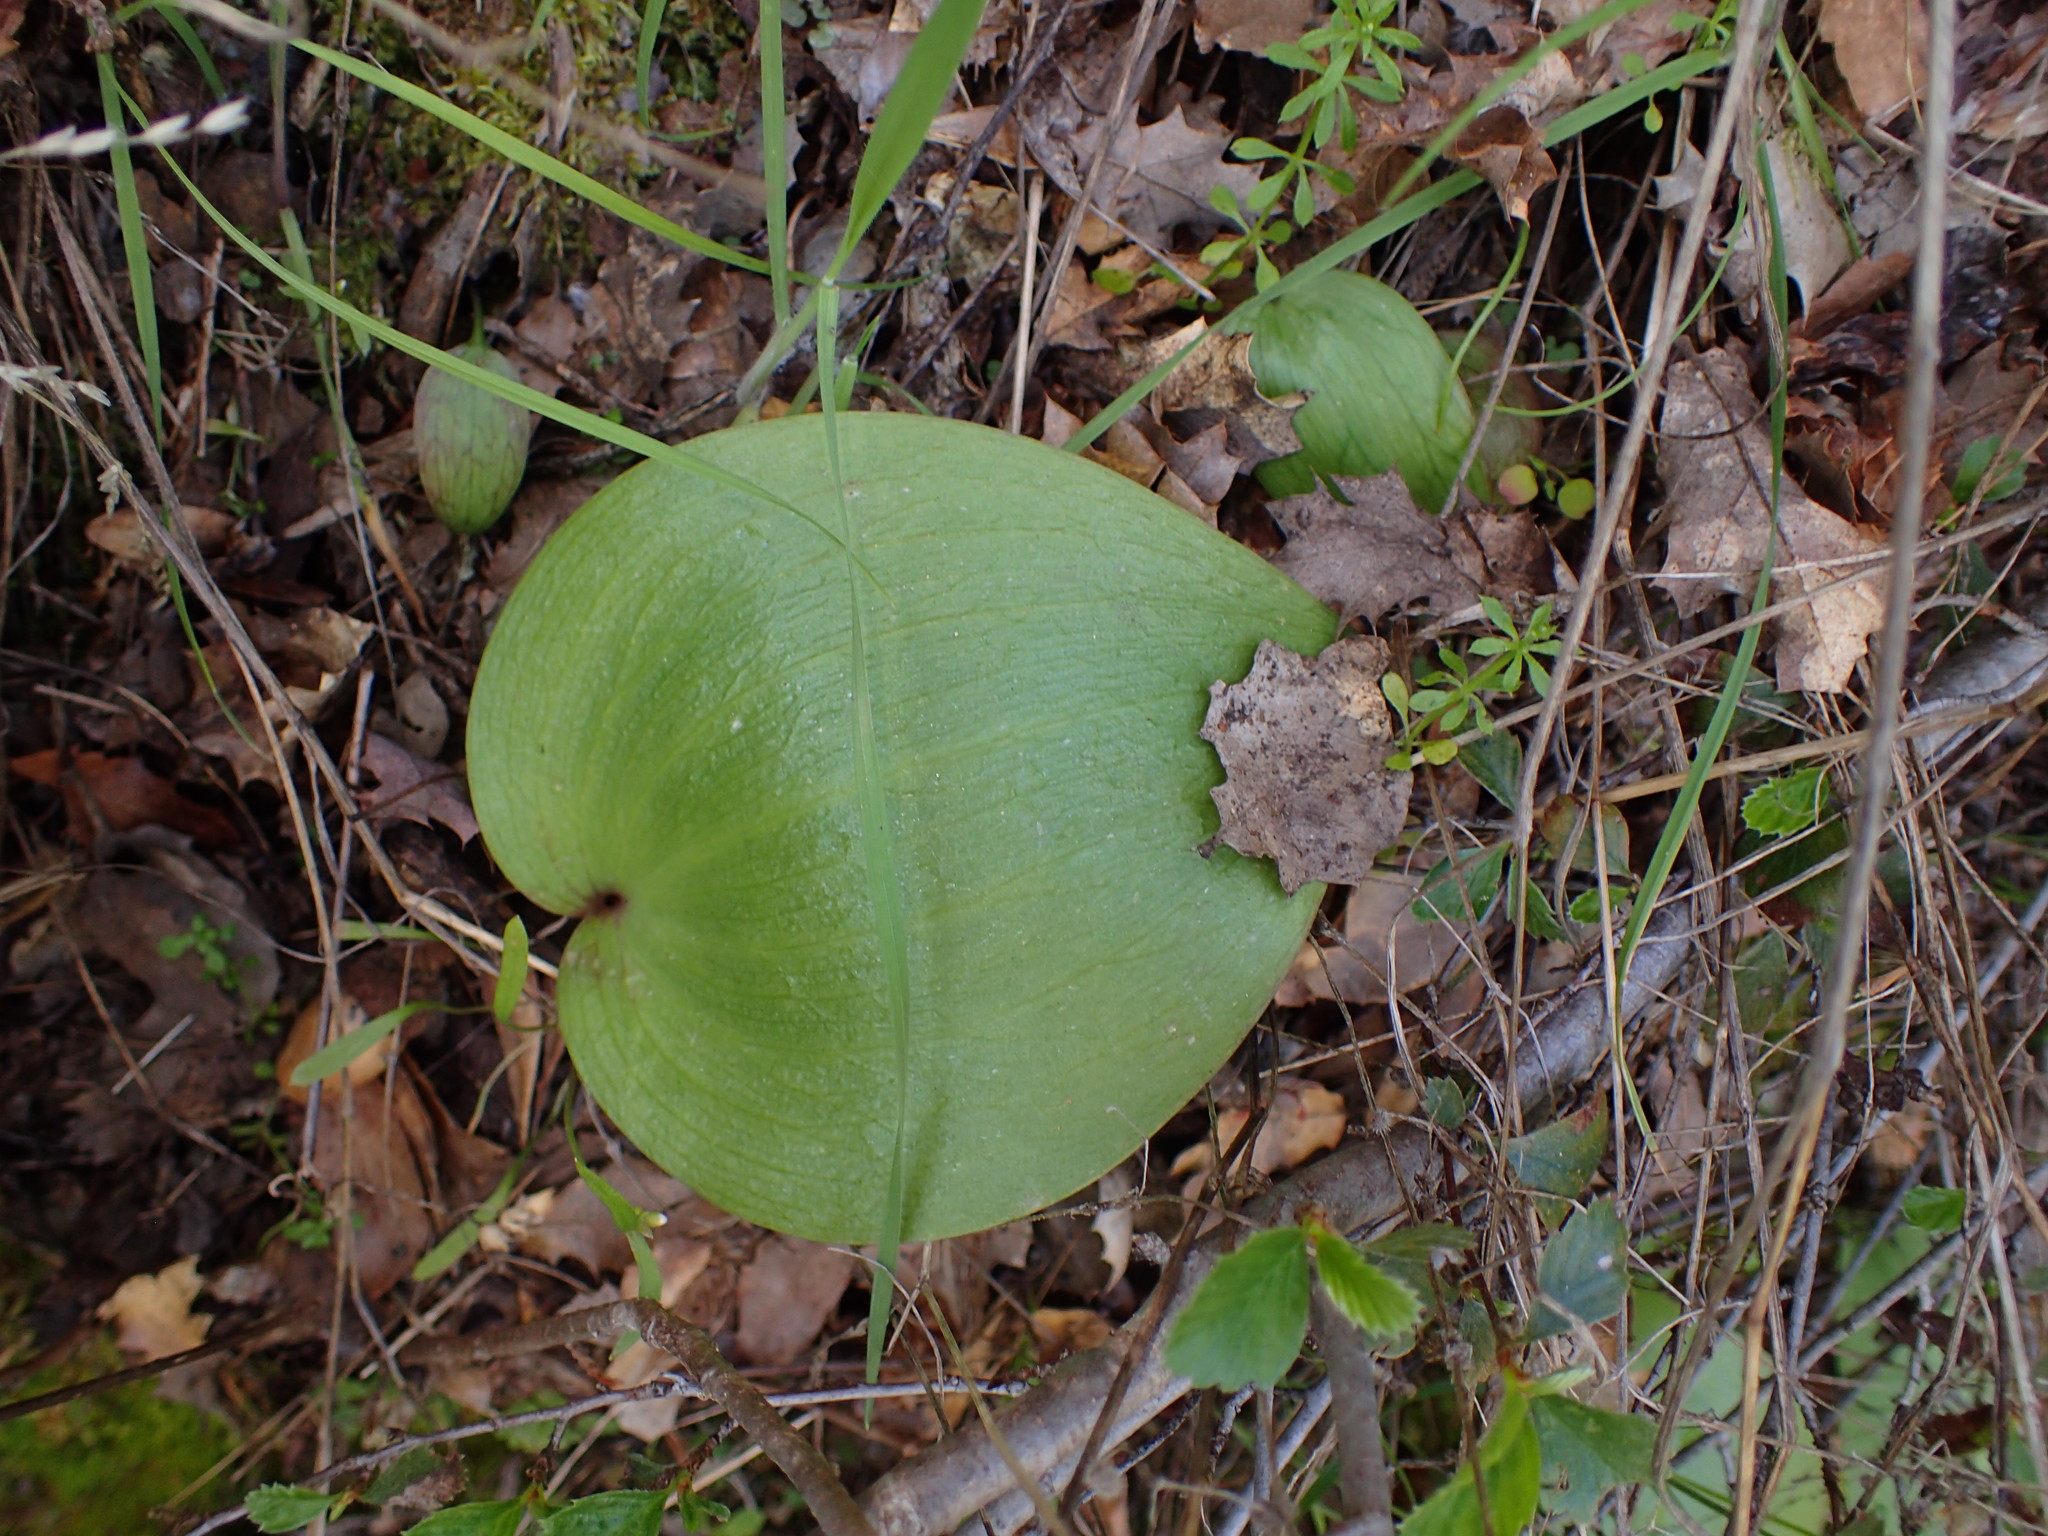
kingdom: Plantae
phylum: Tracheophyta
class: Liliopsida
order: Liliales
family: Liliaceae
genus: Fritillaria
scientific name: Fritillaria ojaiensis
